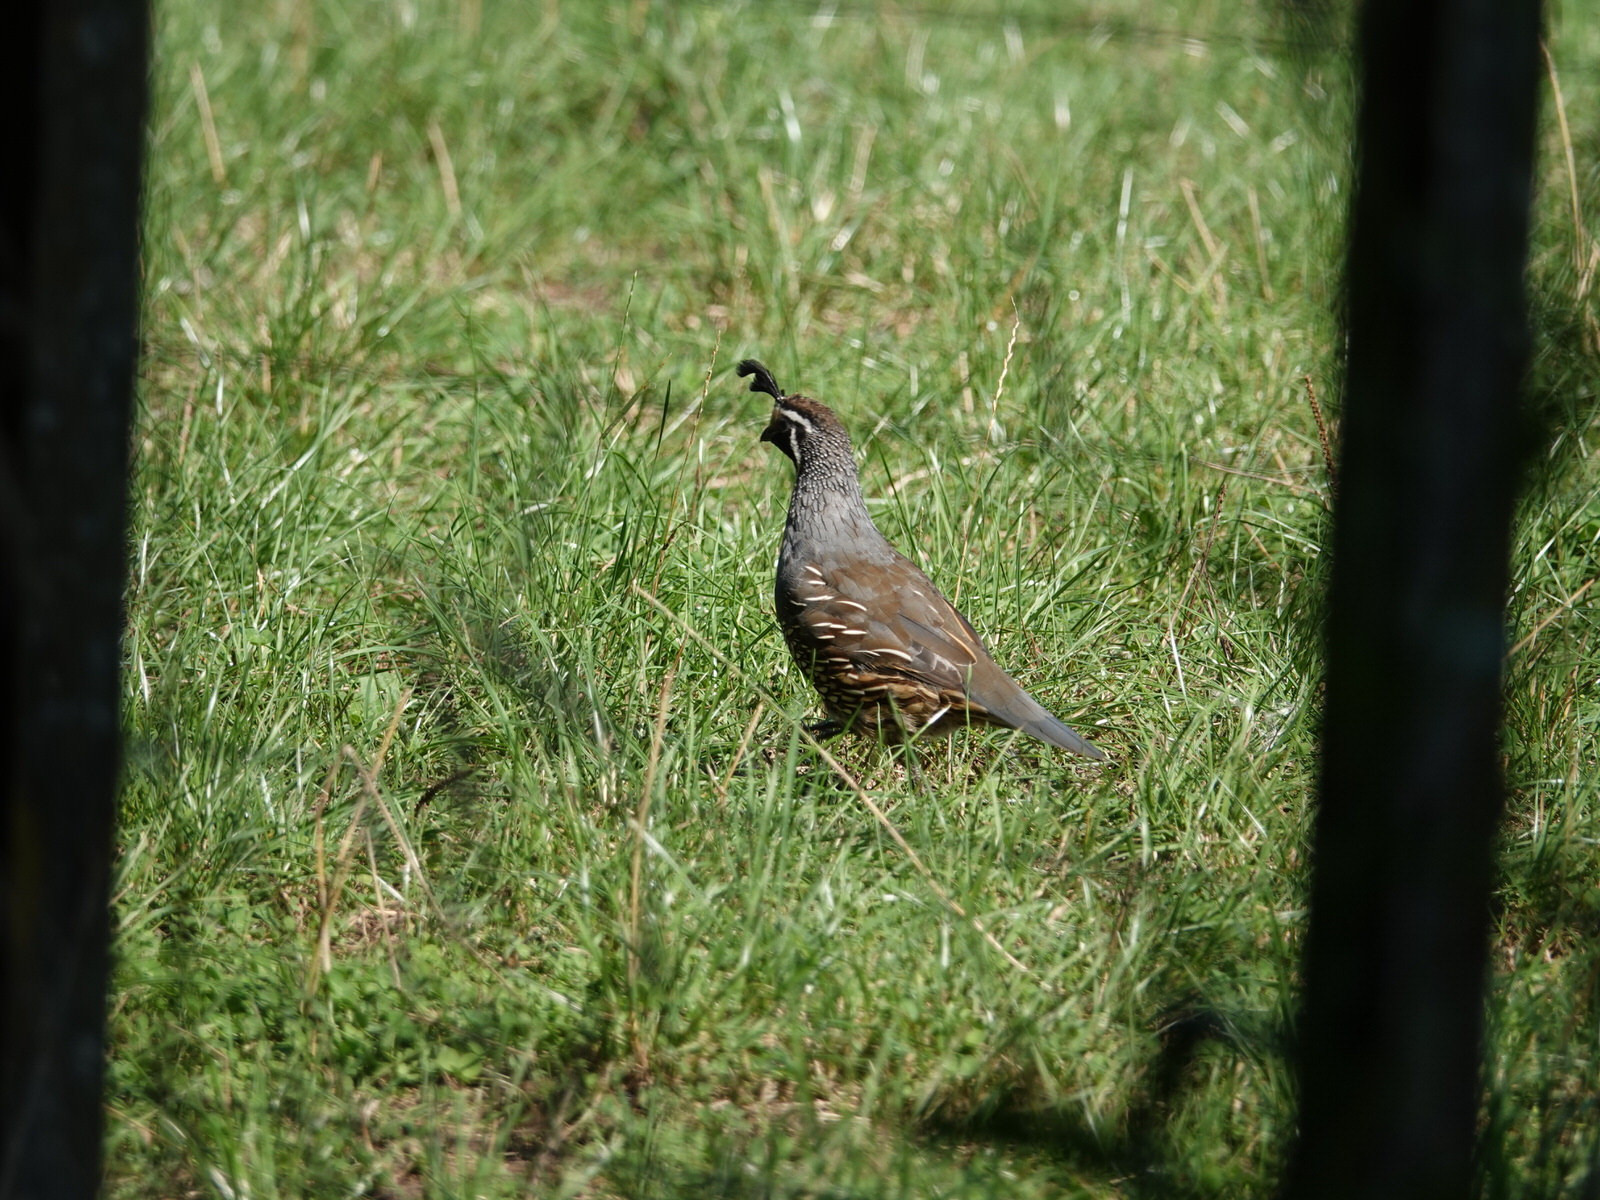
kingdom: Animalia
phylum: Chordata
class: Aves
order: Galliformes
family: Odontophoridae
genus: Callipepla
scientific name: Callipepla californica
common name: California quail
